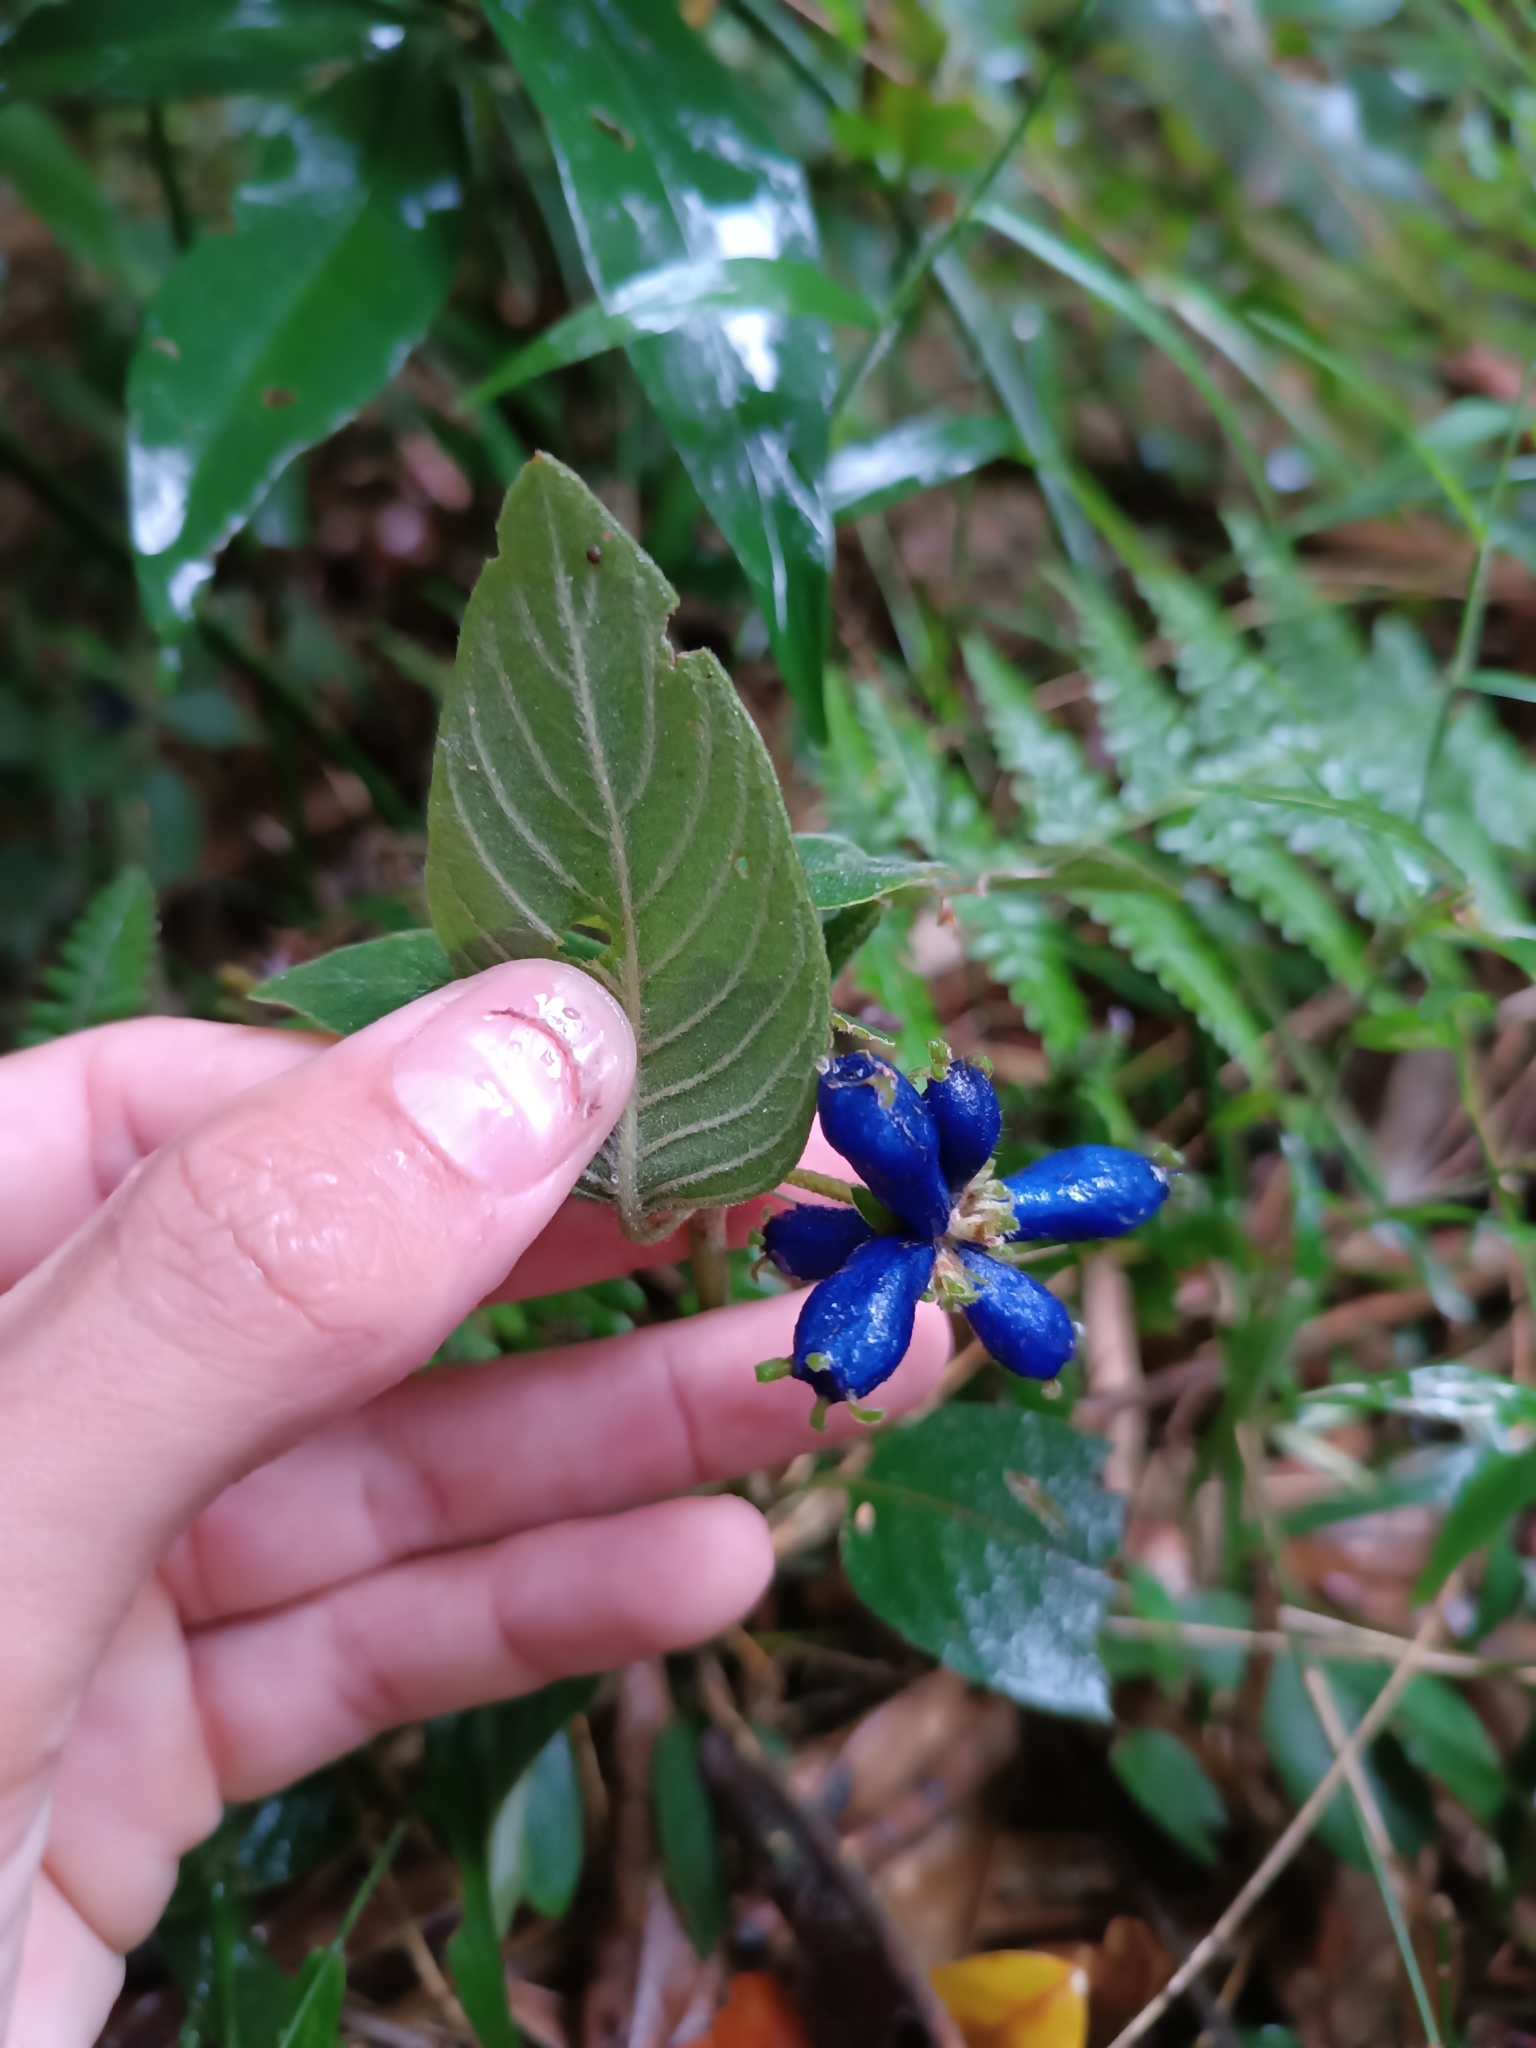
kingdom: Plantae
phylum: Tracheophyta
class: Magnoliopsida
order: Gentianales
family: Rubiaceae
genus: Coccocypselum
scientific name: Coccocypselum lanceolatum
